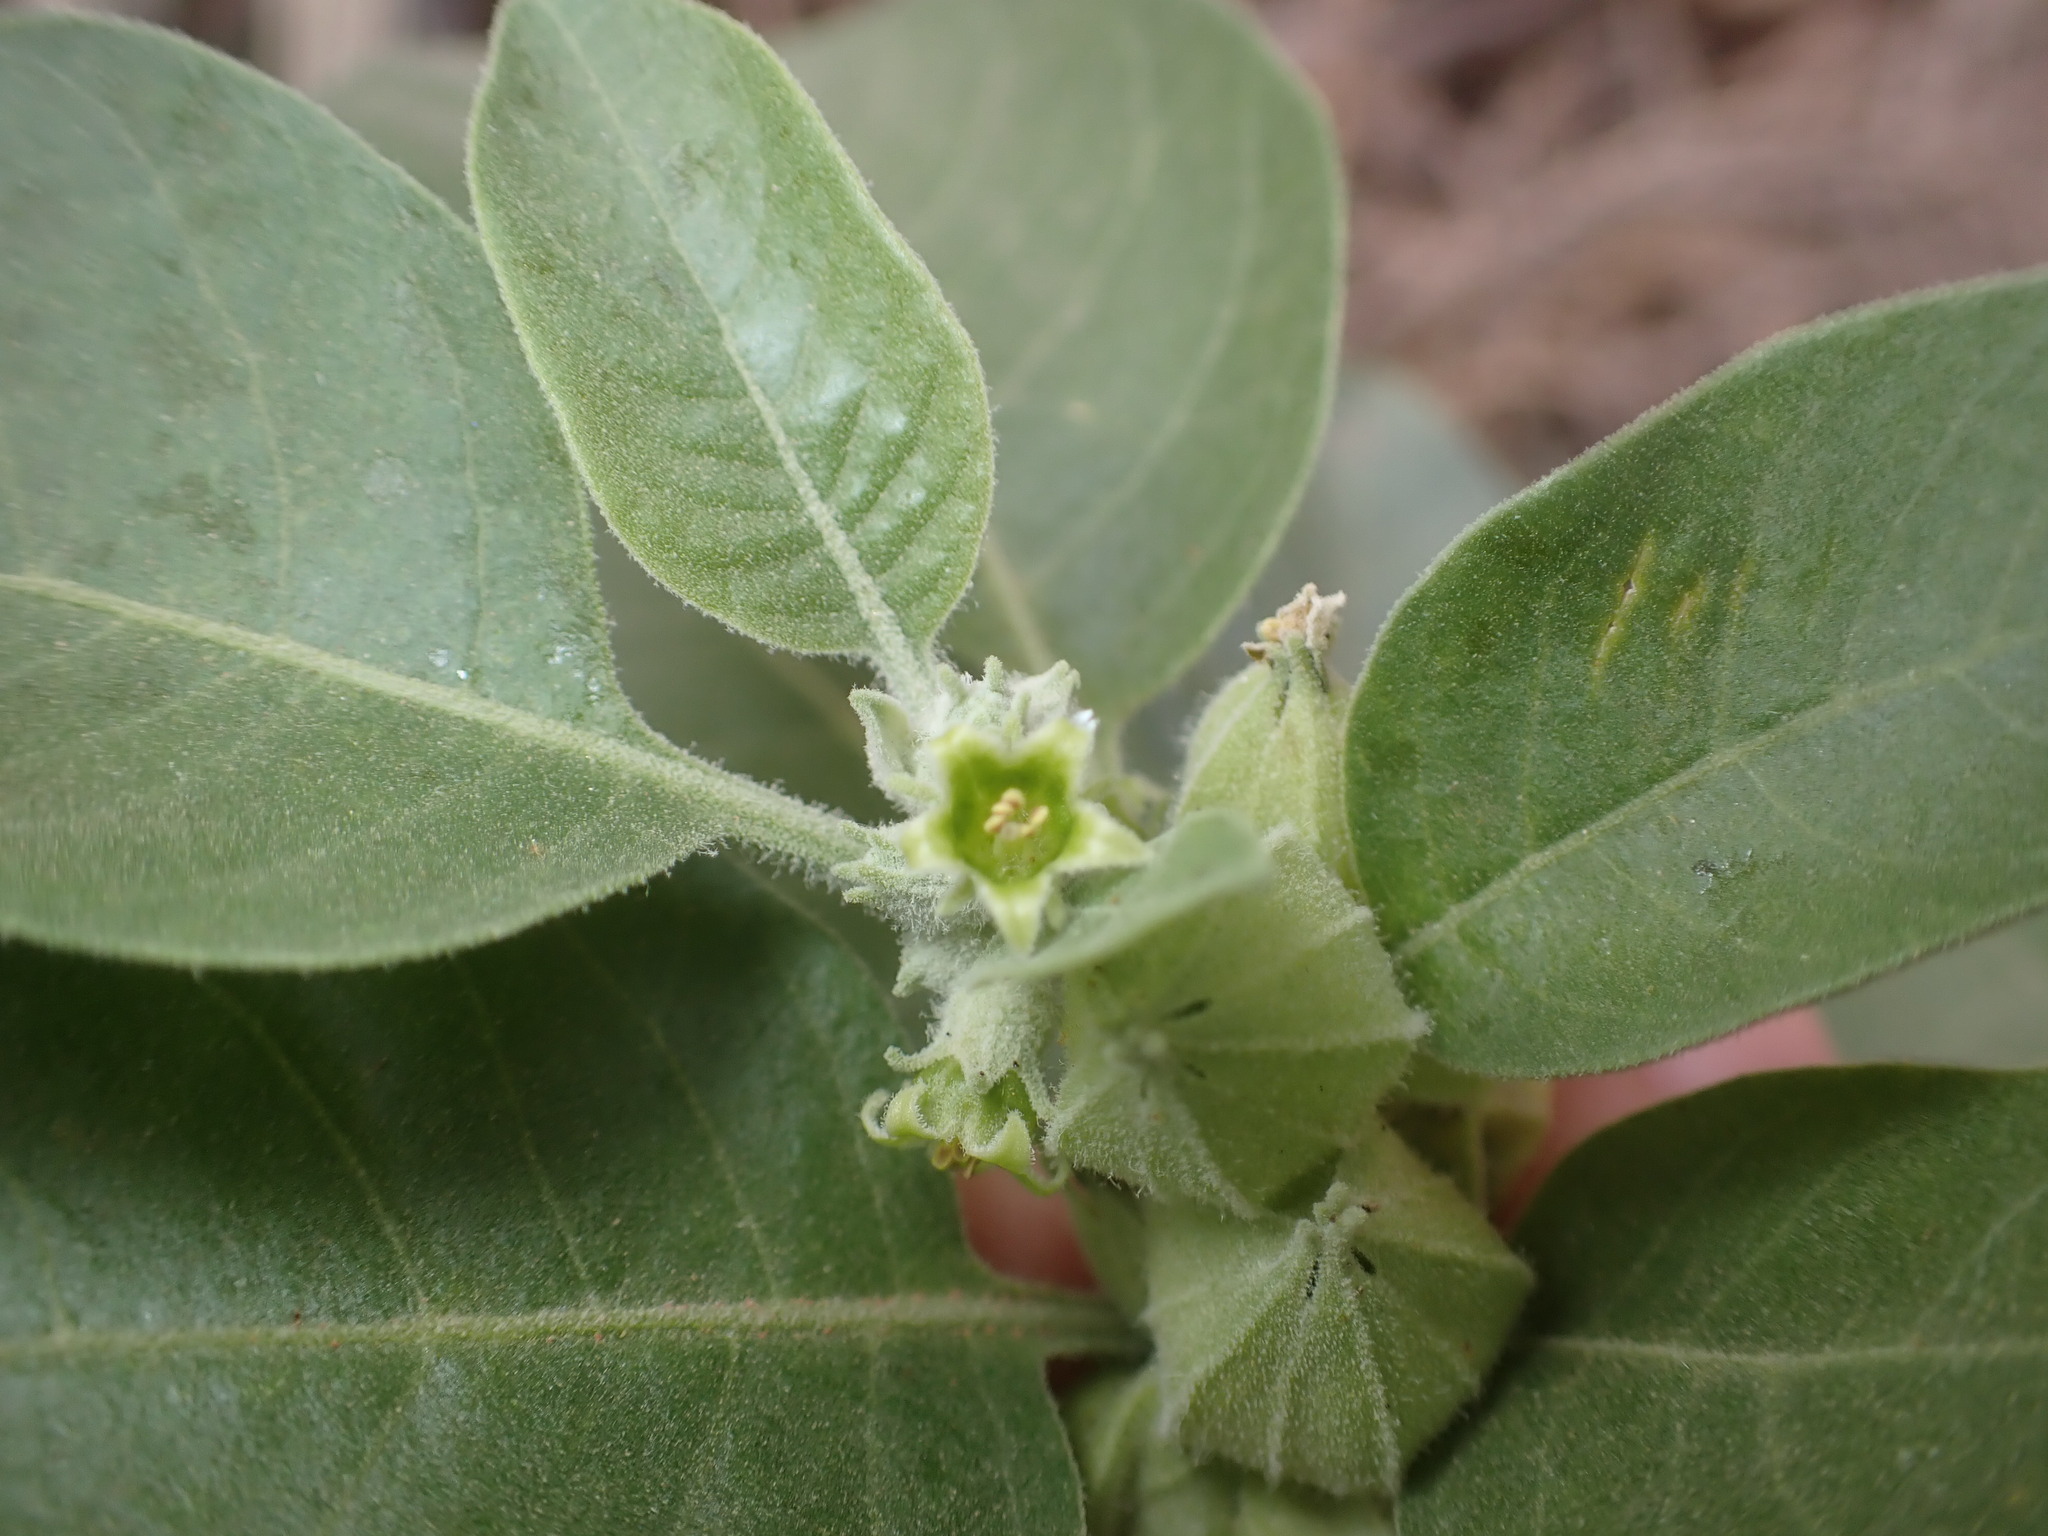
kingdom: Plantae
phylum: Tracheophyta
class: Magnoliopsida
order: Solanales
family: Solanaceae
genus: Withania
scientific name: Withania somnifera
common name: Winter-cherry
